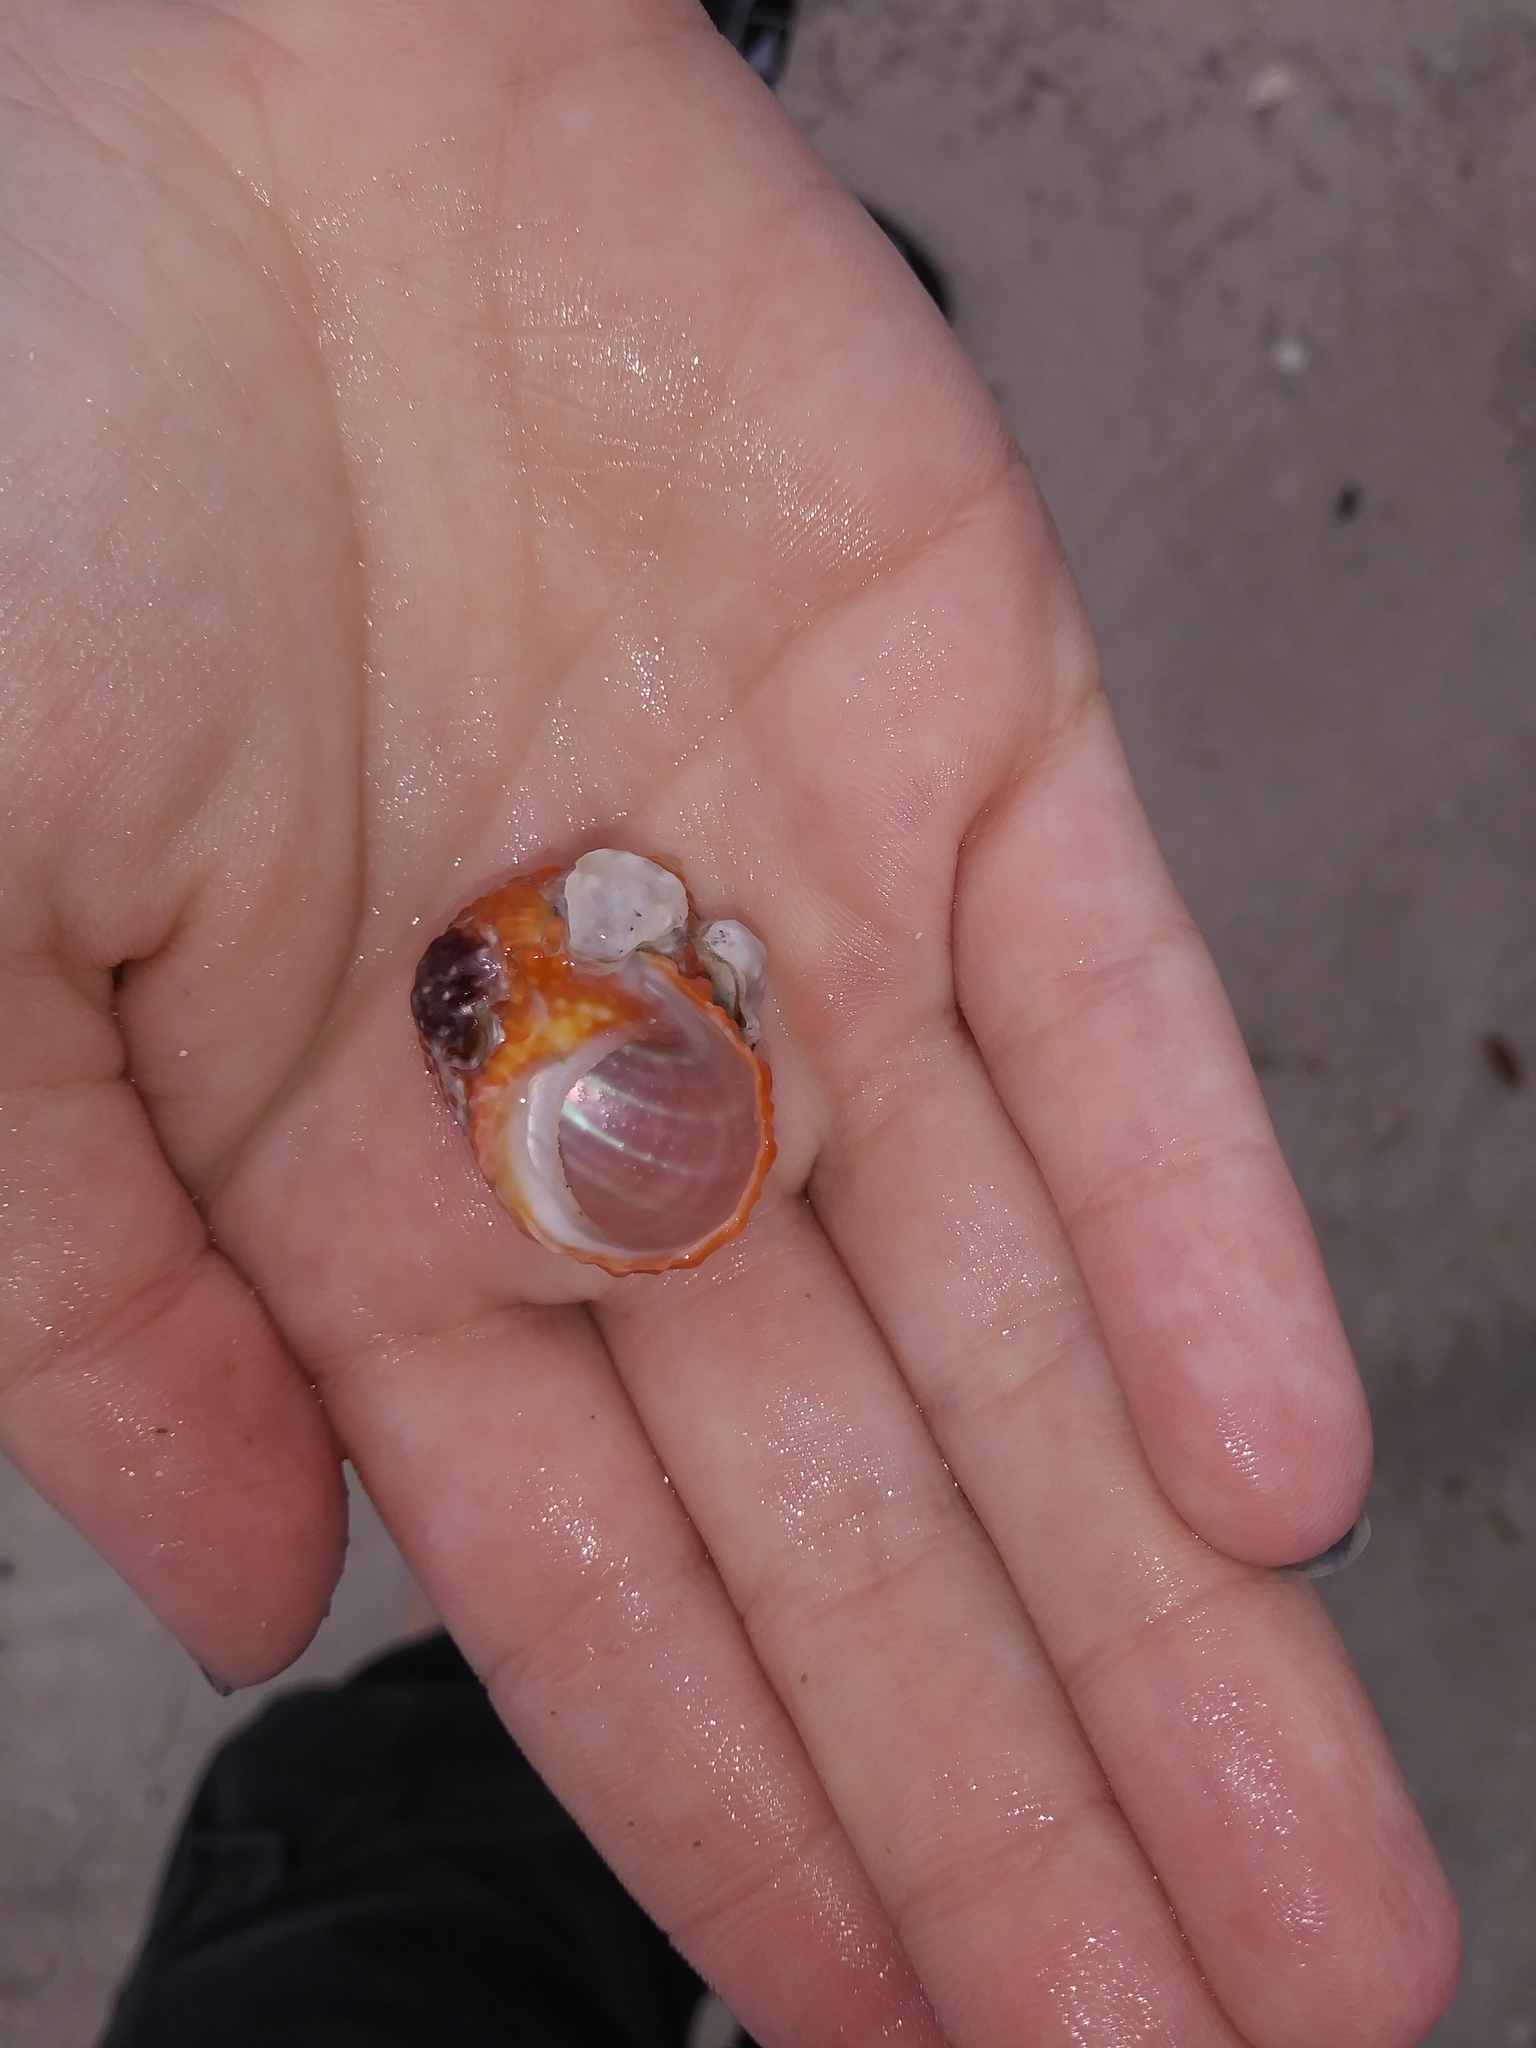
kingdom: Animalia
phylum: Mollusca
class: Gastropoda
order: Trochida
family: Turbinidae
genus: Turbo
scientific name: Turbo castanea
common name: Chestnut turban
